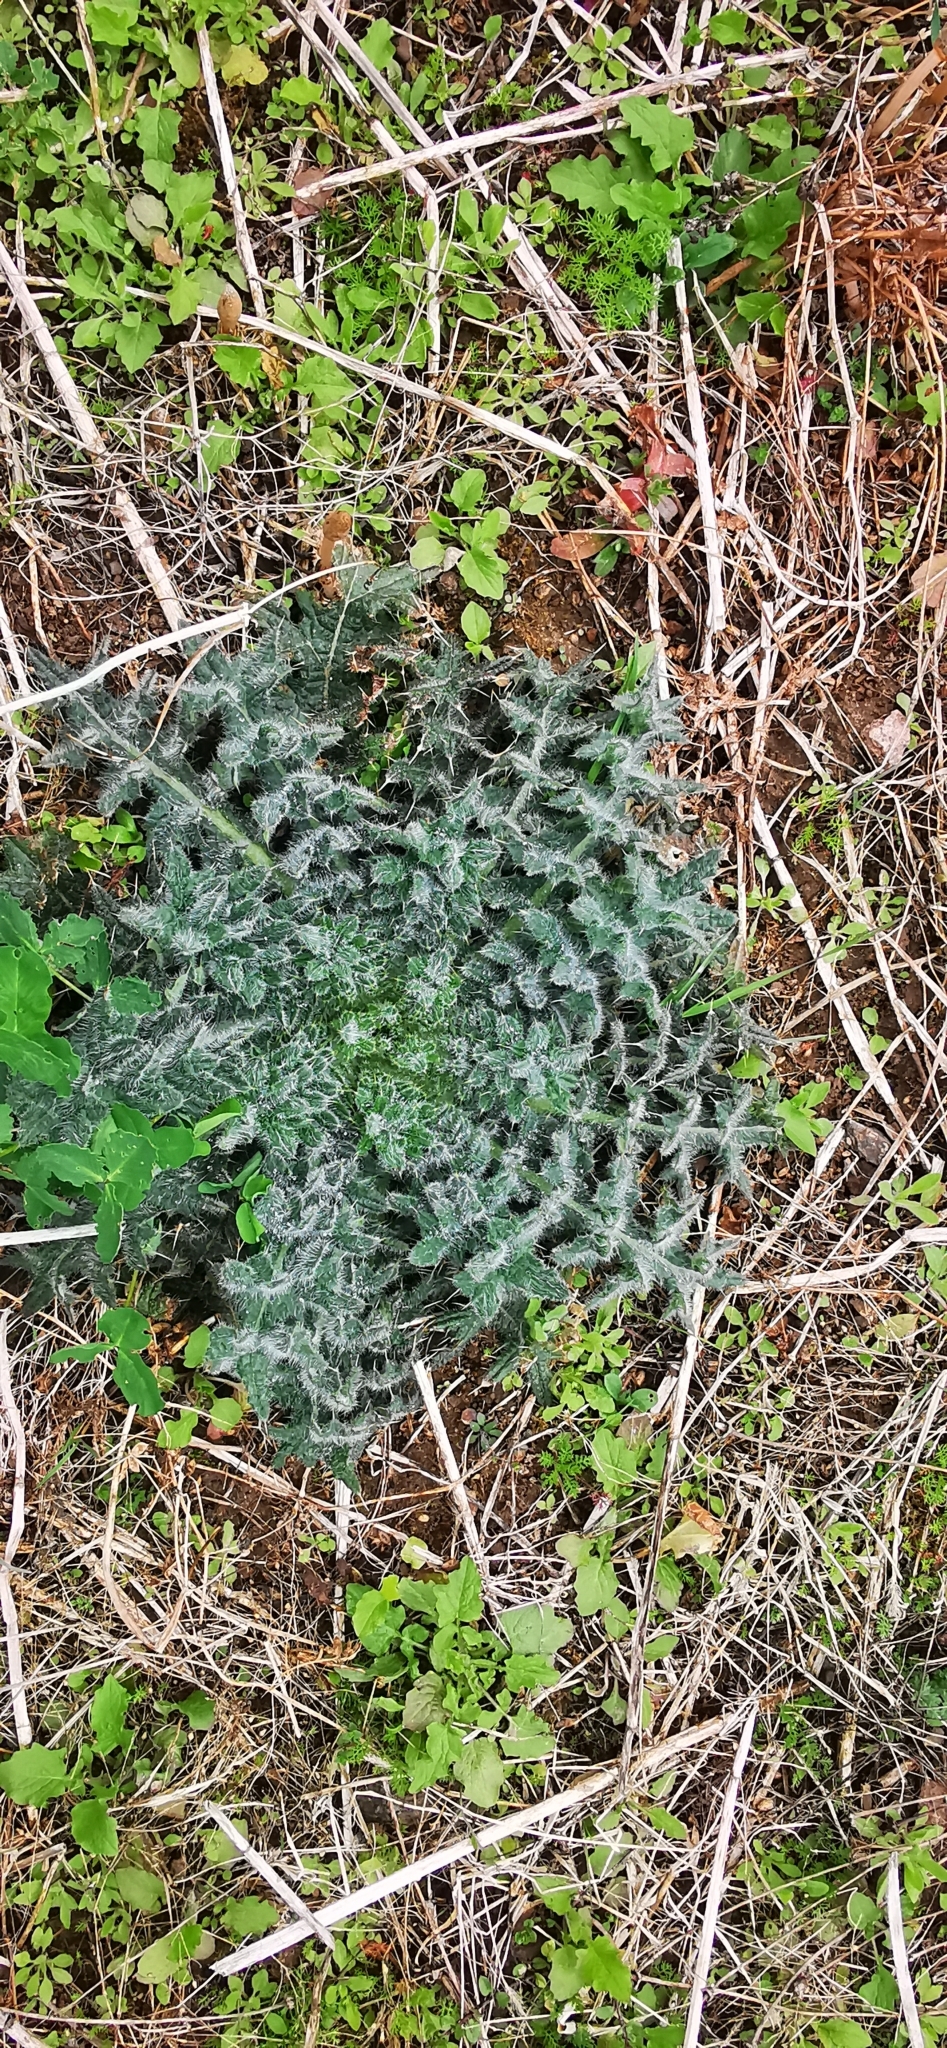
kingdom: Plantae
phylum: Tracheophyta
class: Magnoliopsida
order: Asterales
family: Asteraceae
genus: Cirsium
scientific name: Cirsium vulgare
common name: Bull thistle
